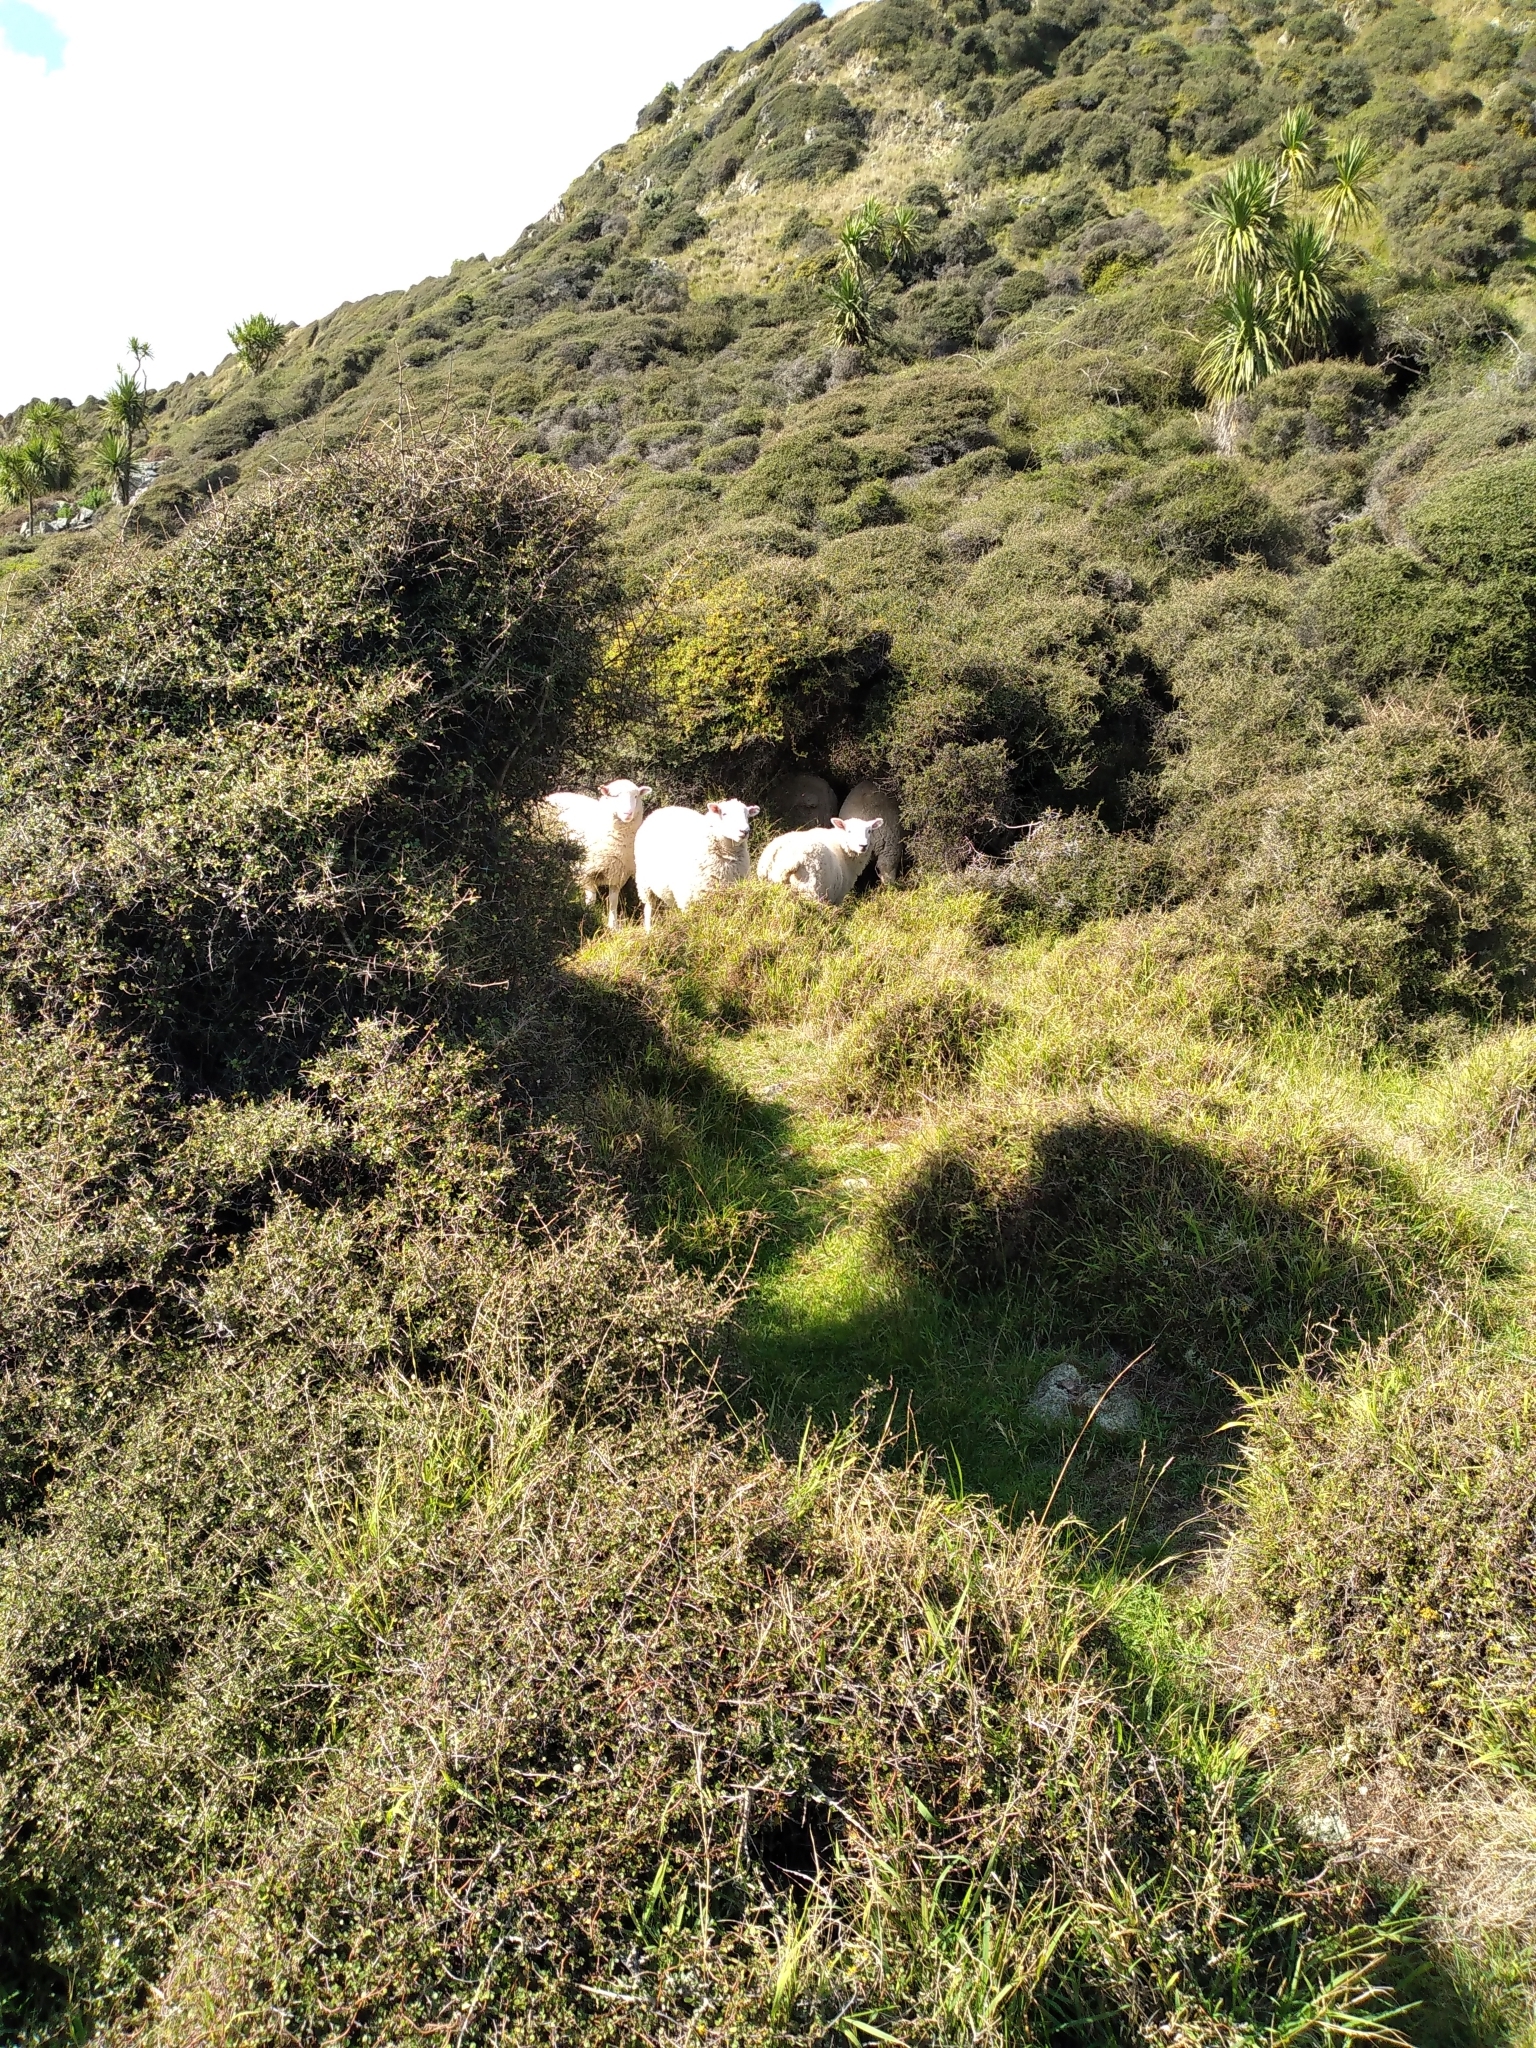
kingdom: Animalia
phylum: Chordata
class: Mammalia
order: Artiodactyla
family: Bovidae
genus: Ovis
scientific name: Ovis aries
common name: Domestic sheep
